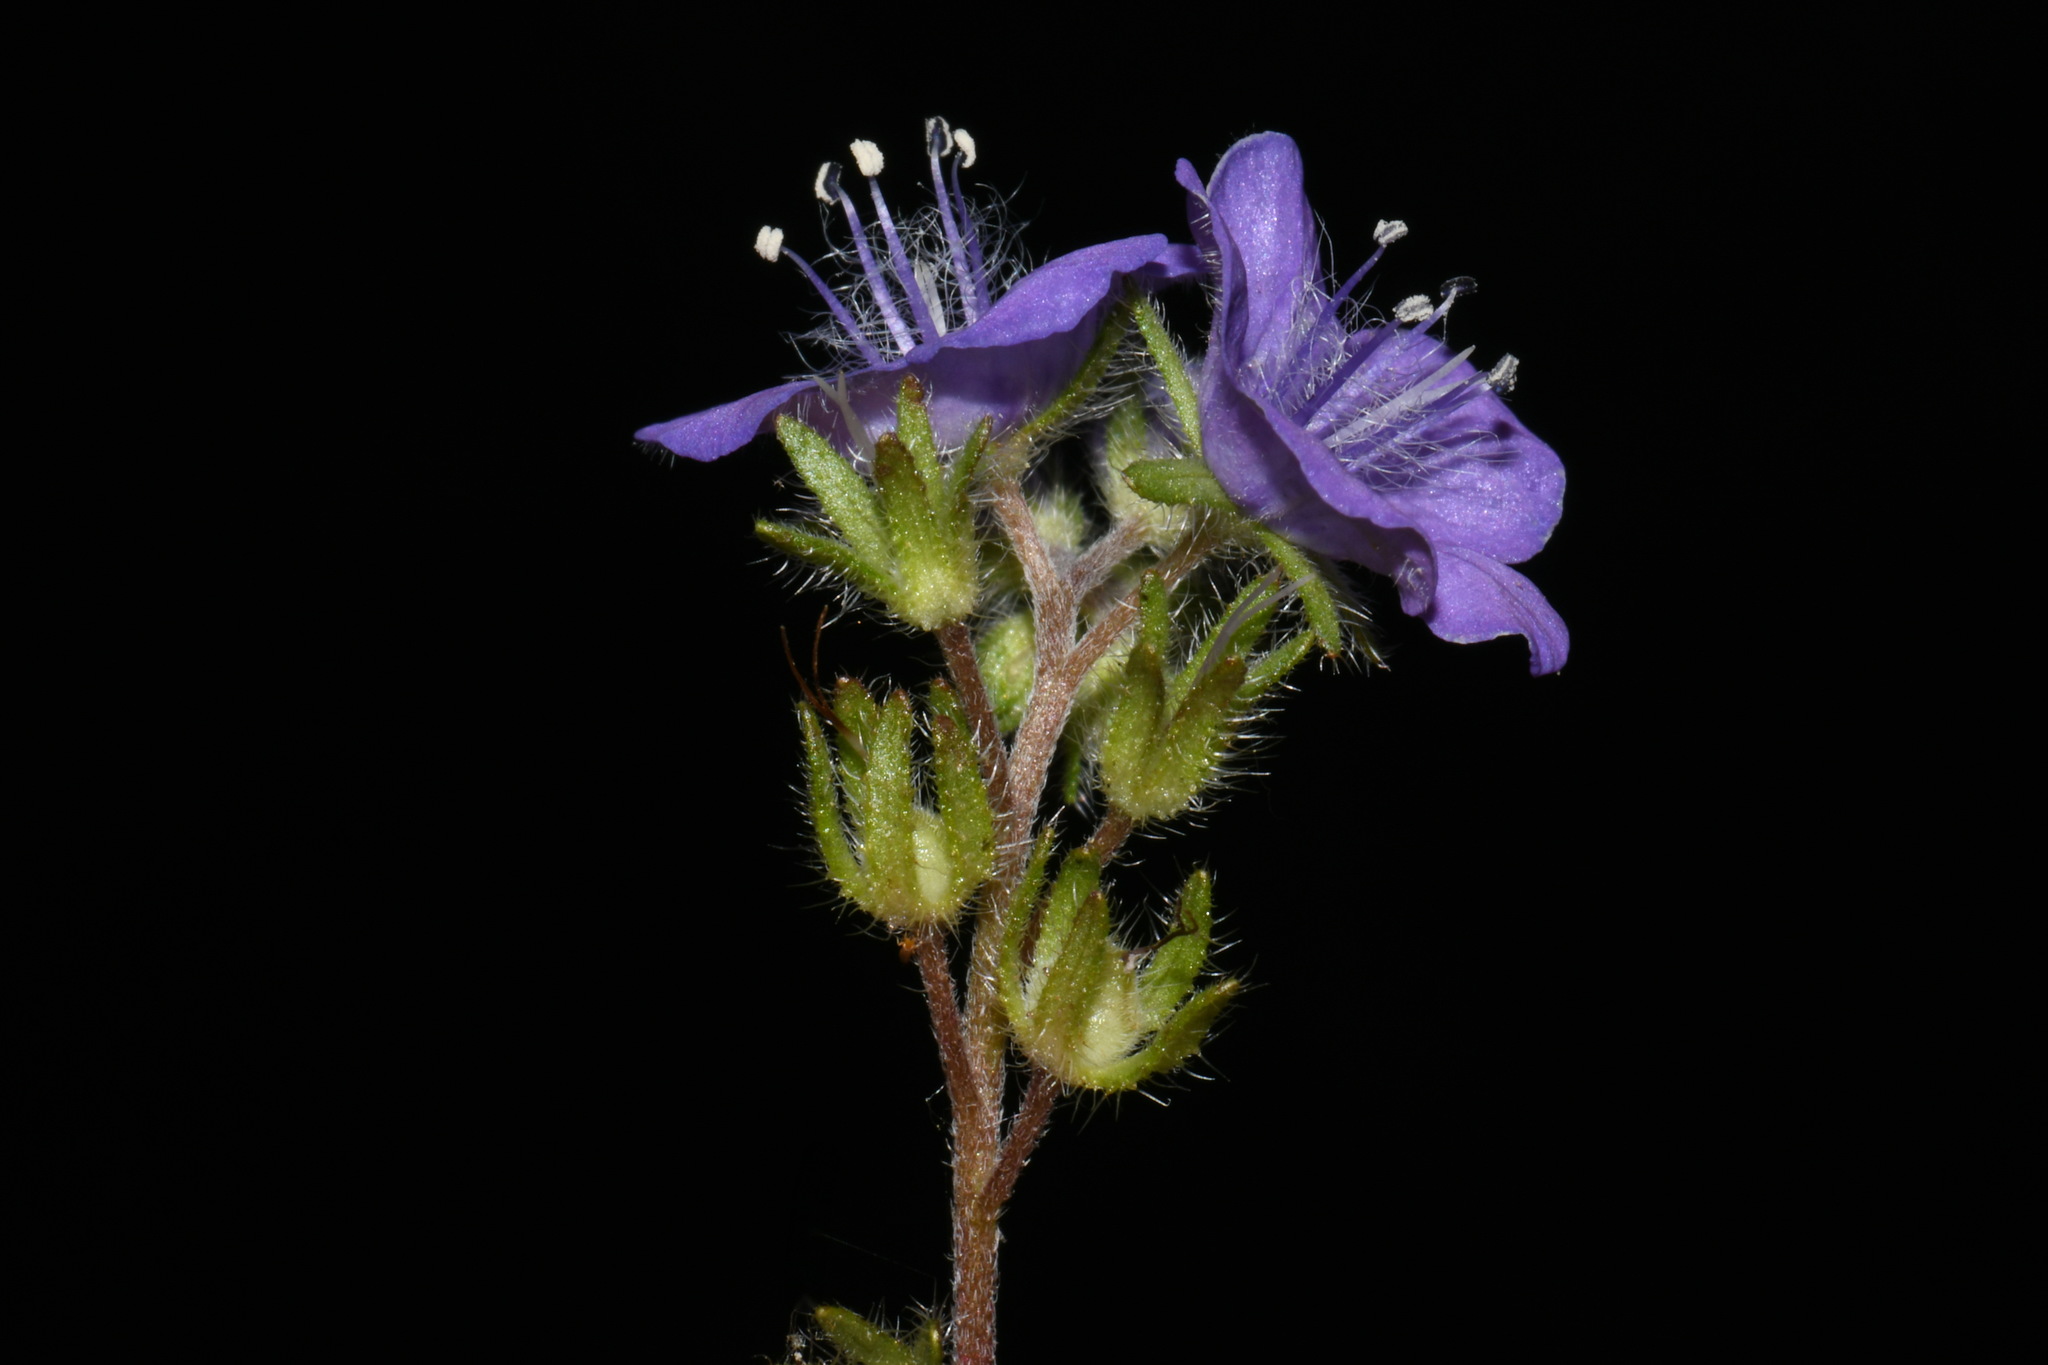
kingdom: Plantae
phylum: Tracheophyta
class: Magnoliopsida
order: Boraginales
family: Hydrophyllaceae
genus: Phacelia
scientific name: Phacelia maculata
